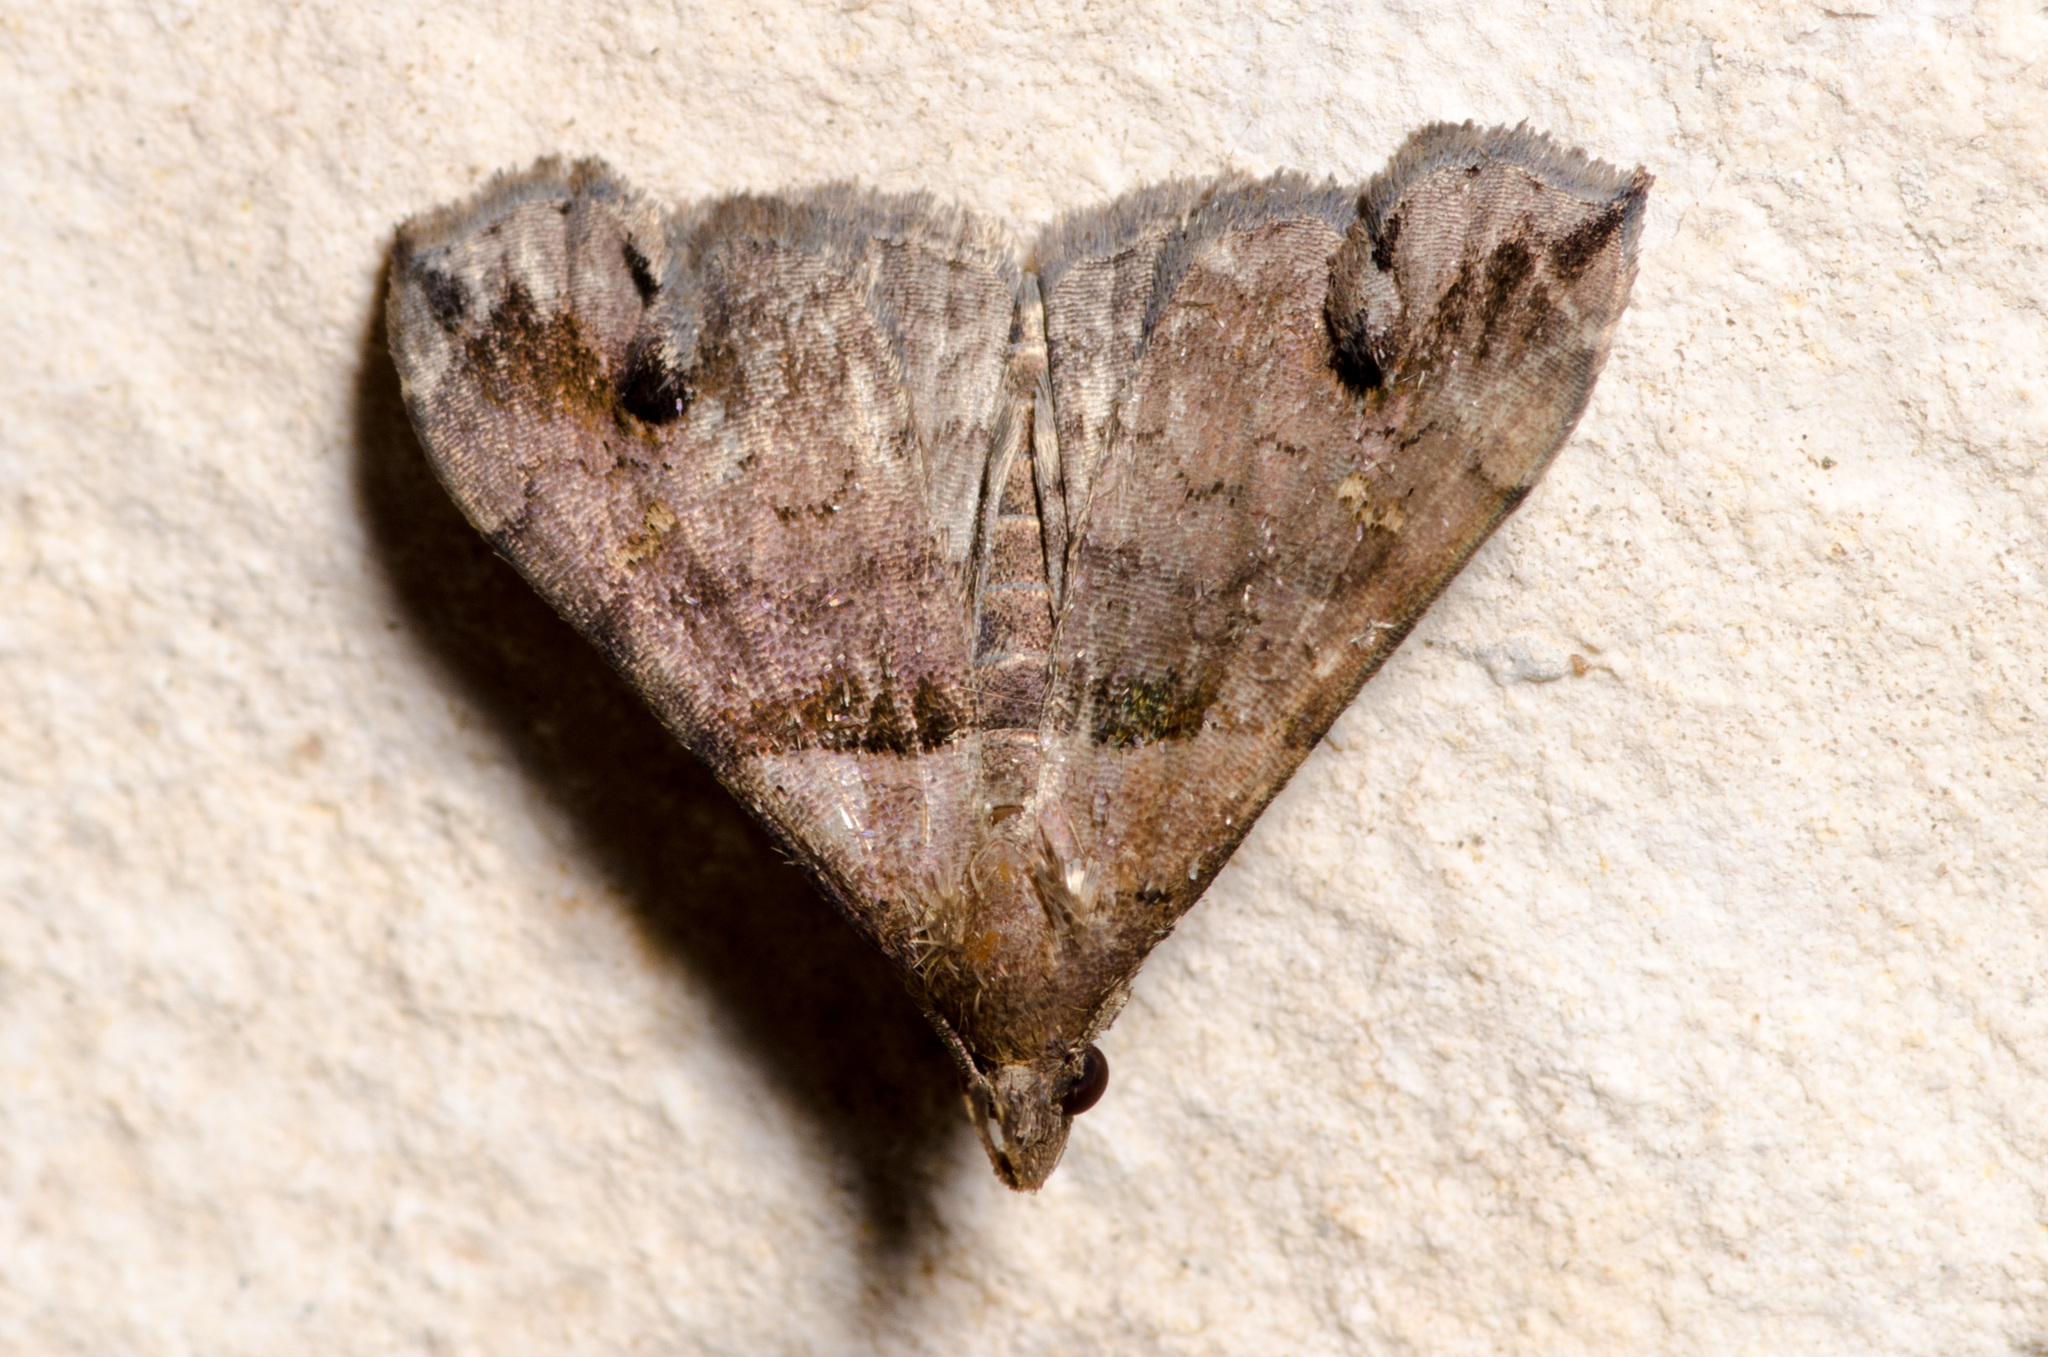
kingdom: Animalia
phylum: Arthropoda
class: Insecta
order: Lepidoptera
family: Erebidae
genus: Lascoria
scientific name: Lascoria ambigualis
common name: Ambiguous moth
